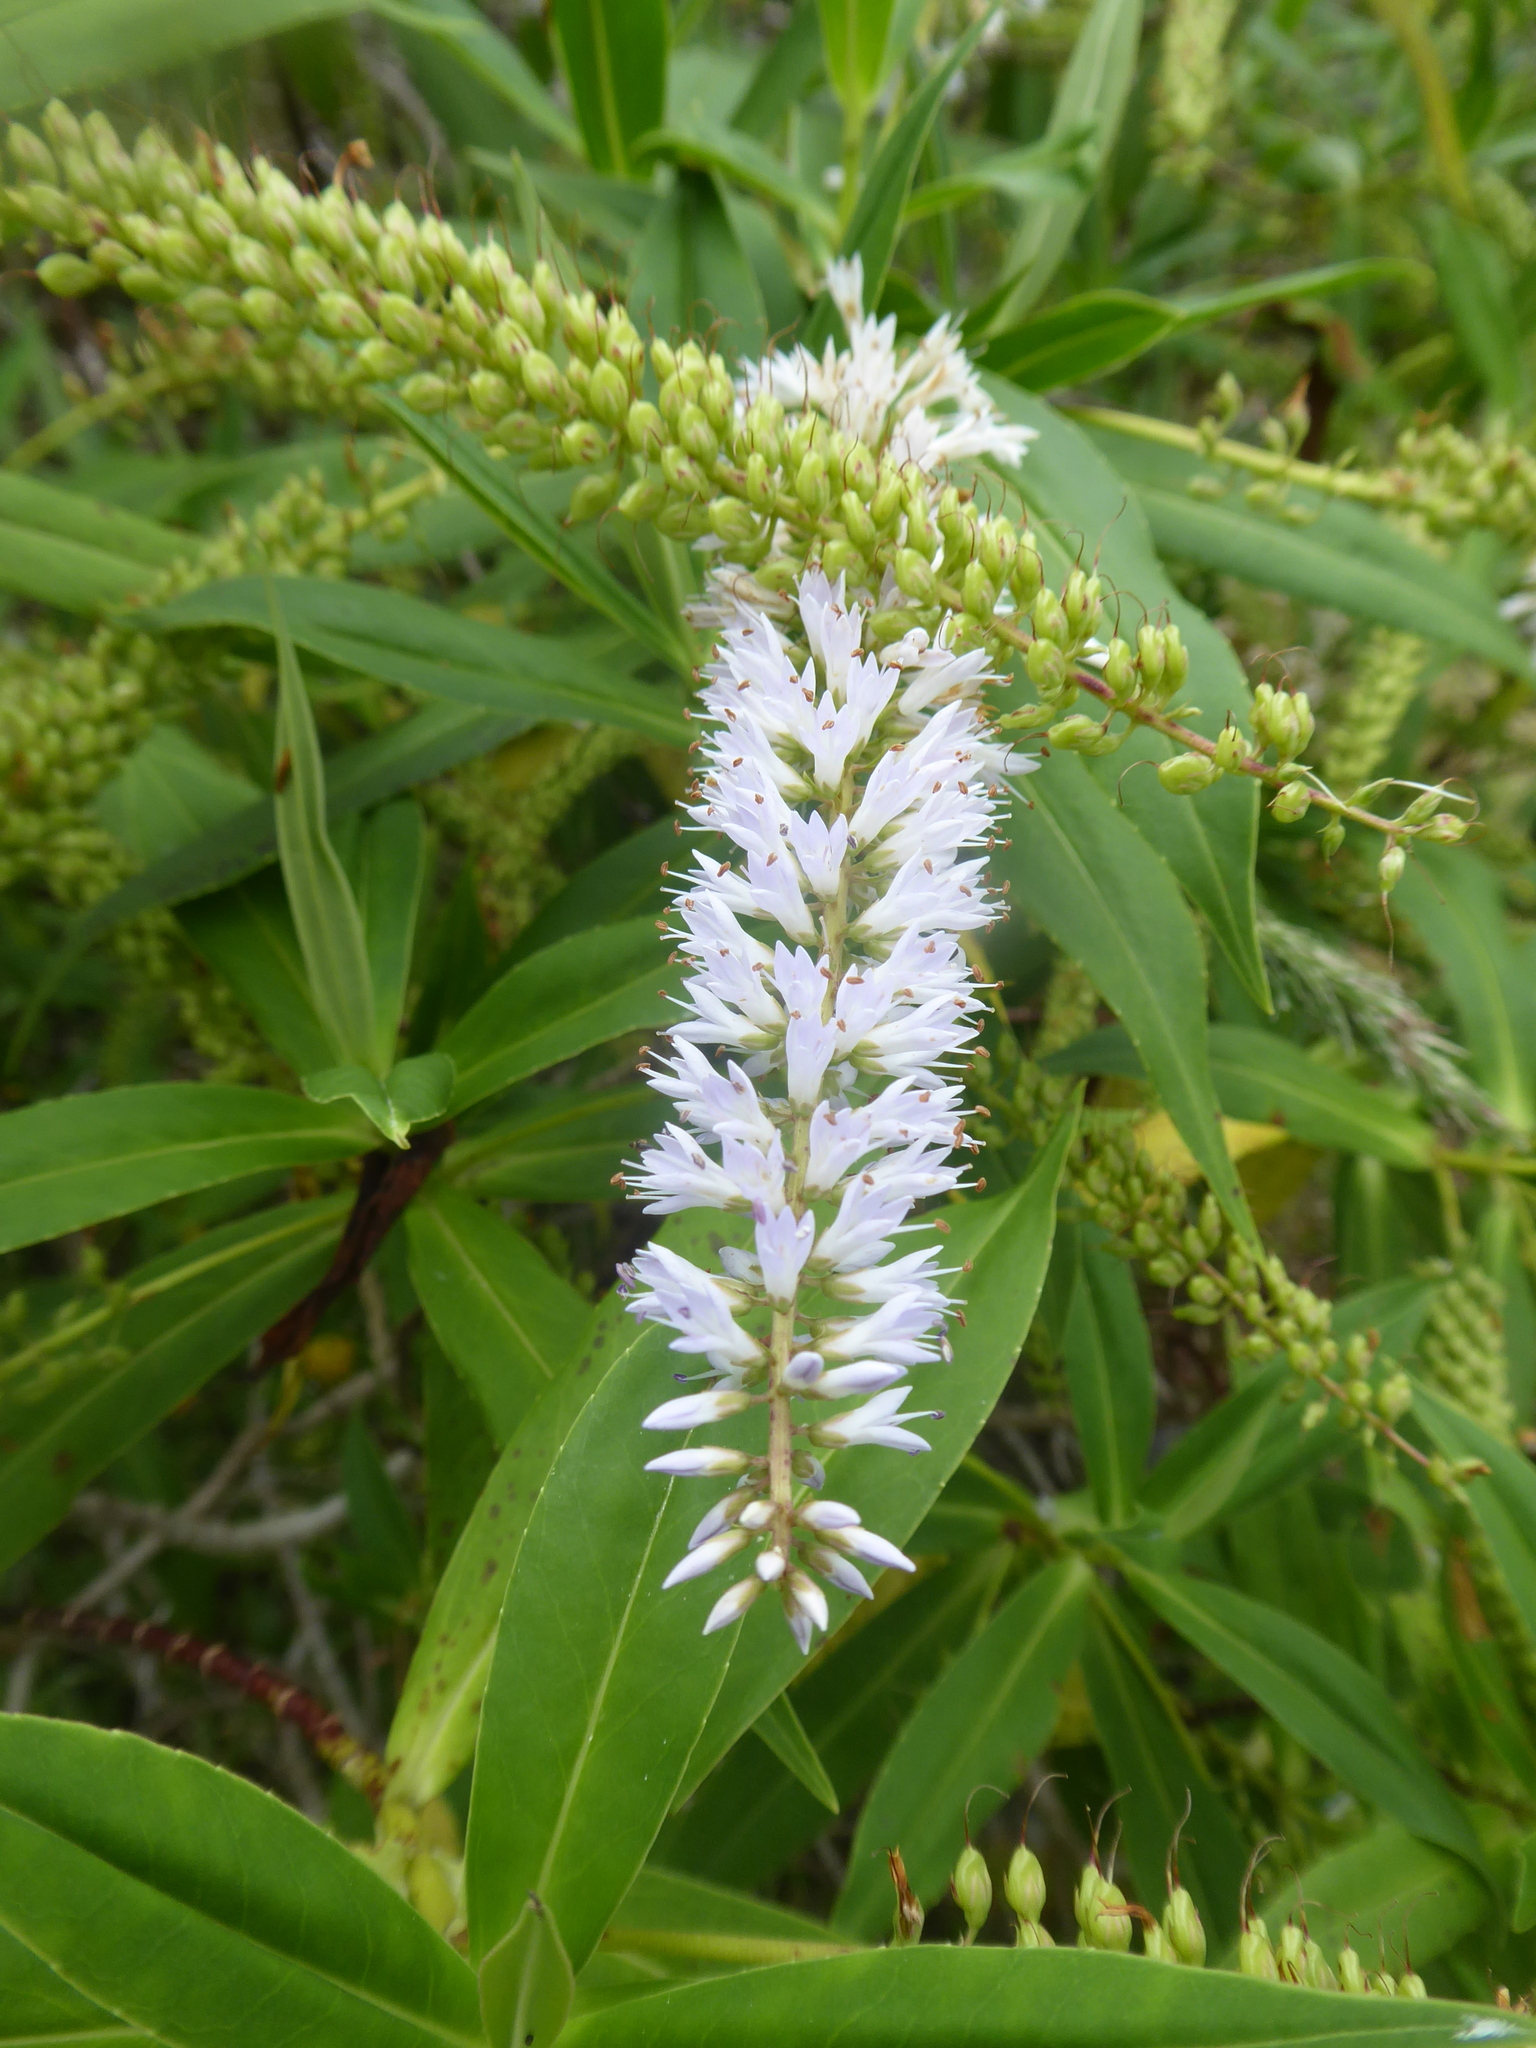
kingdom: Plantae
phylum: Tracheophyta
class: Magnoliopsida
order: Lamiales
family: Plantaginaceae
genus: Veronica
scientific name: Veronica salicifolia
